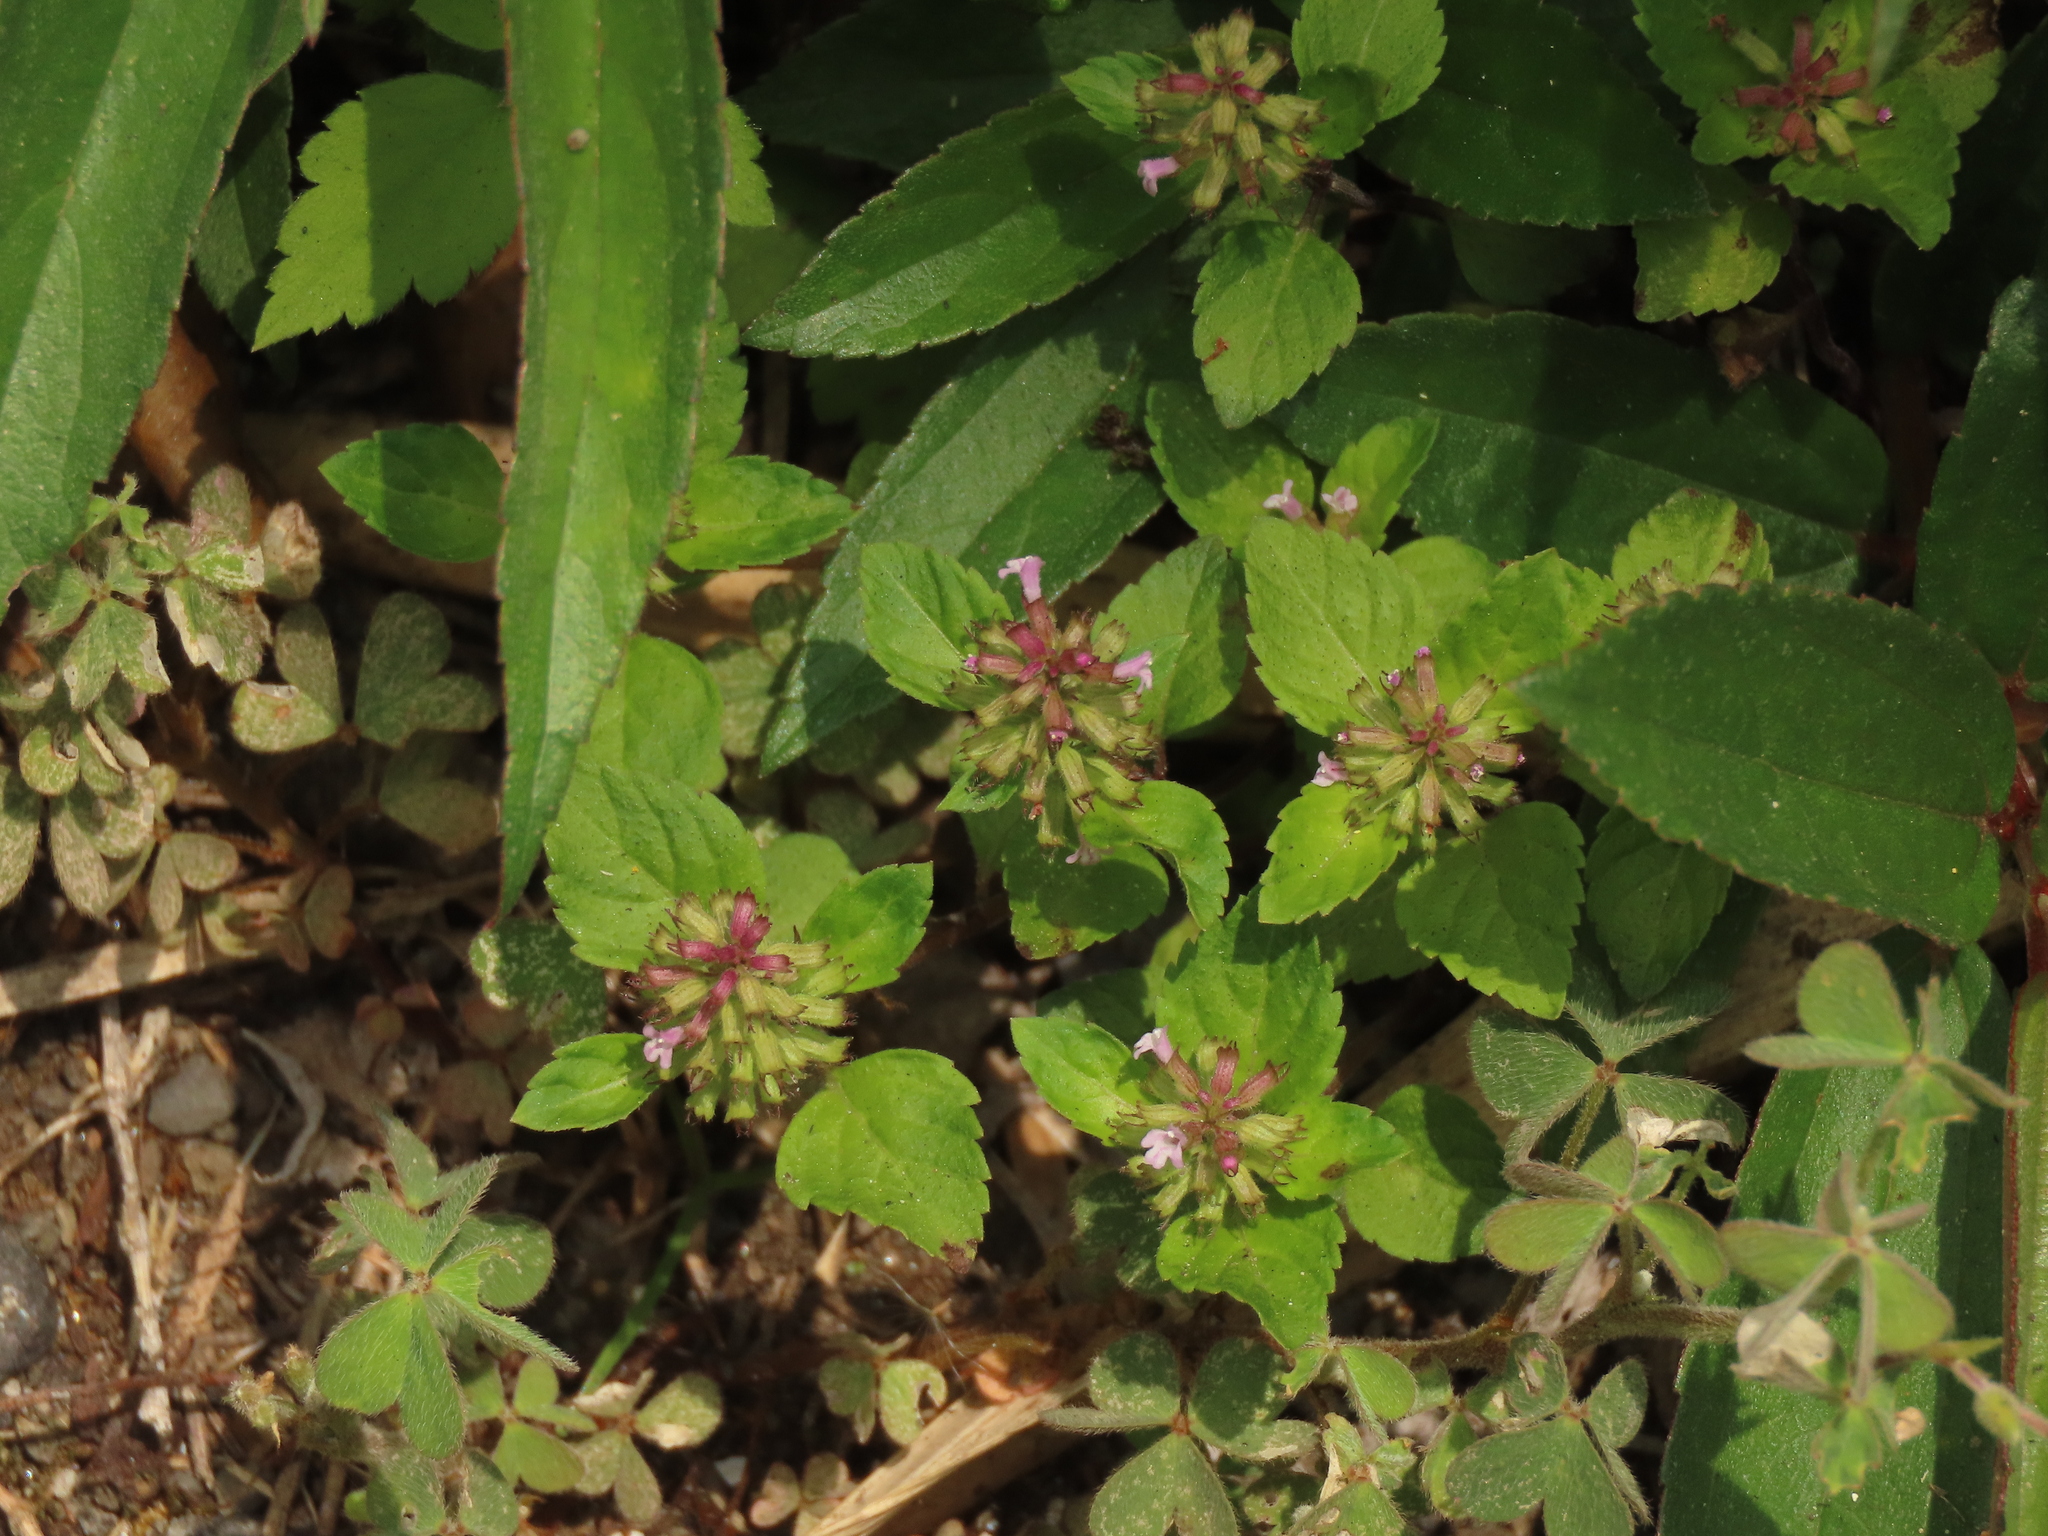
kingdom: Plantae
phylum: Tracheophyta
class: Magnoliopsida
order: Lamiales
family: Lamiaceae
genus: Clinopodium
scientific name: Clinopodium gracile
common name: Slender wild basil
